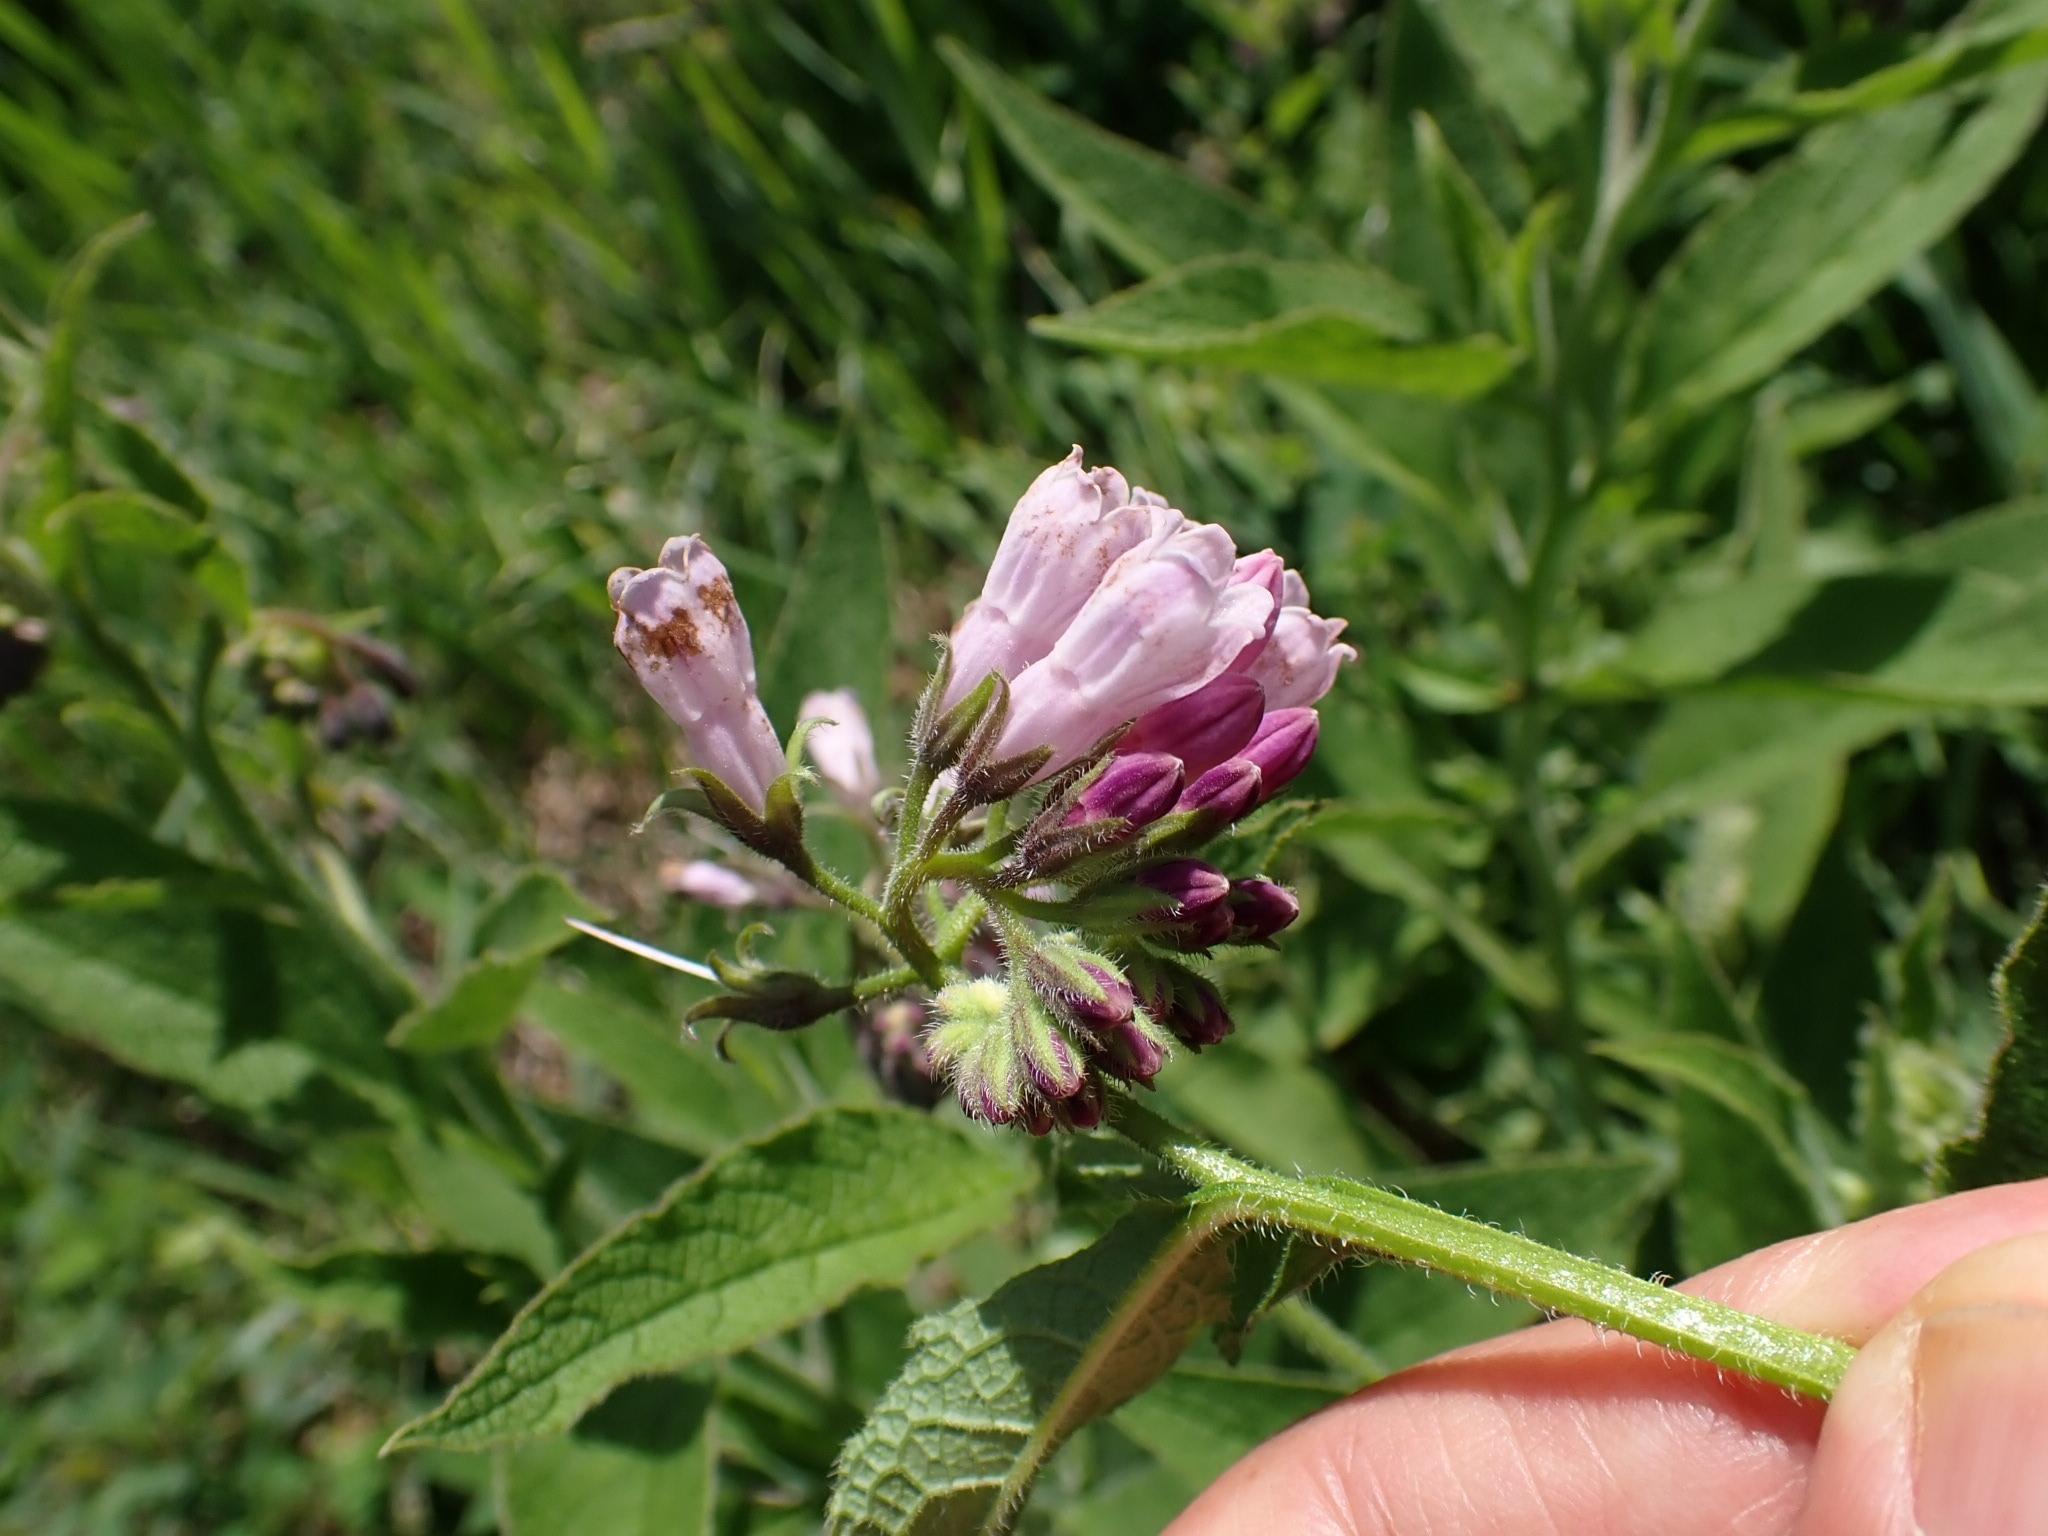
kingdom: Plantae
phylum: Tracheophyta
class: Magnoliopsida
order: Boraginales
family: Boraginaceae
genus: Symphytum
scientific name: Symphytum officinale
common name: Common comfrey
